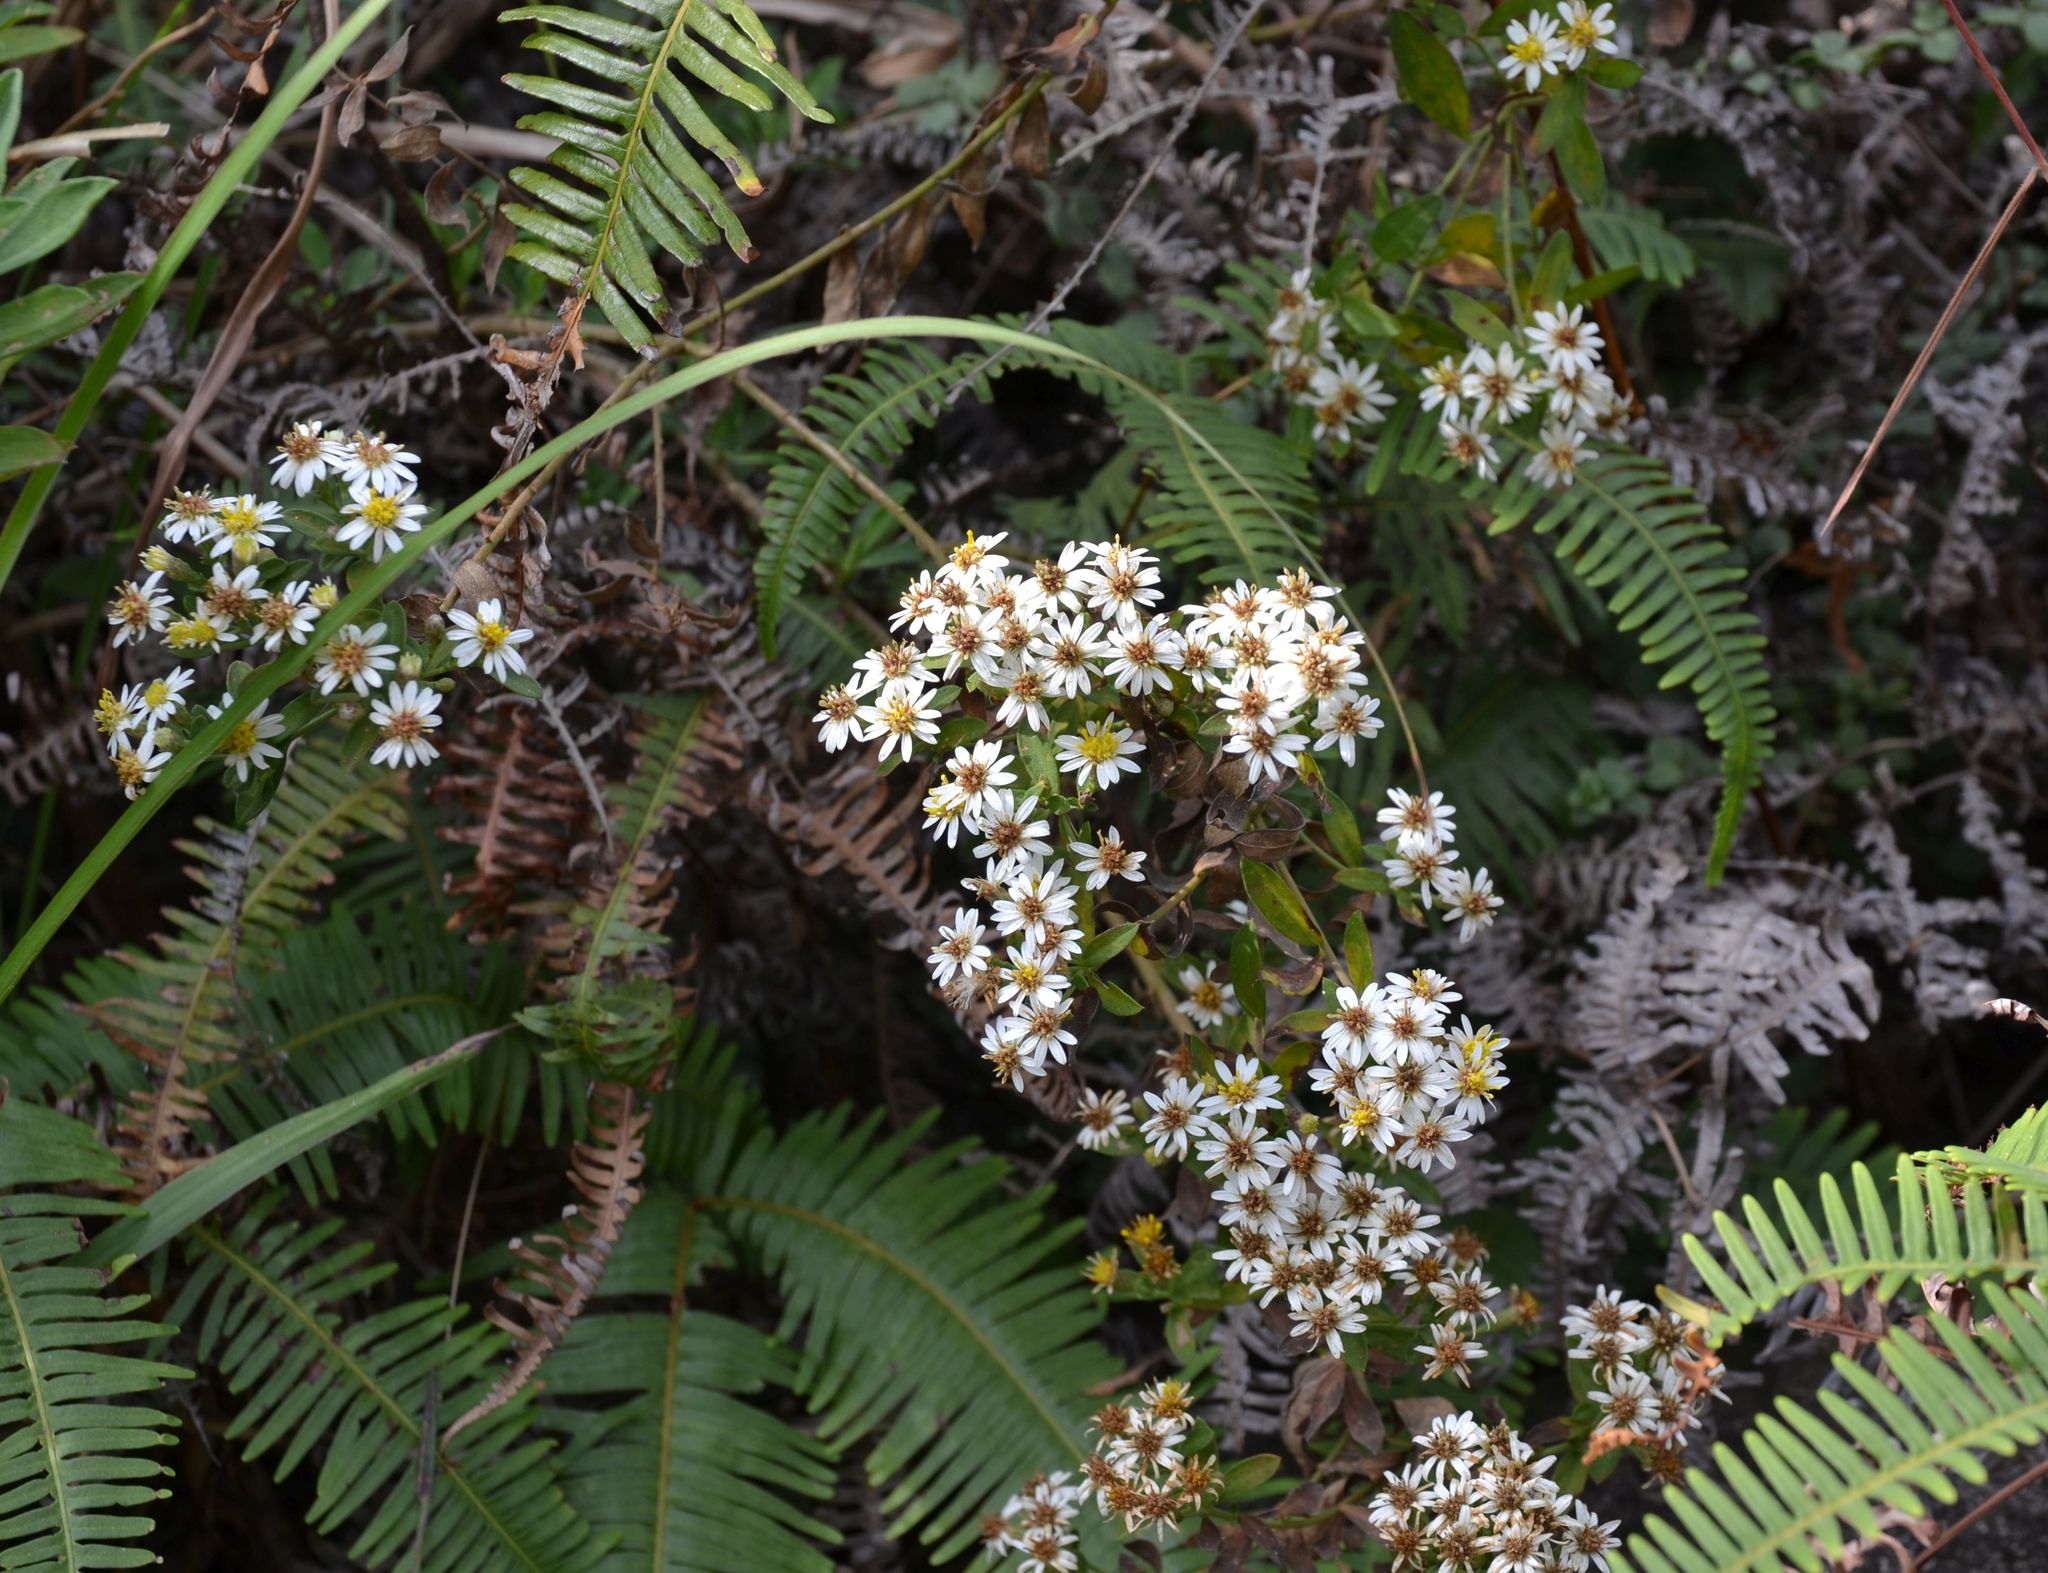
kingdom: Plantae
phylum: Tracheophyta
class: Magnoliopsida
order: Asterales
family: Asteraceae
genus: Aster
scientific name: Aster baccharoides
